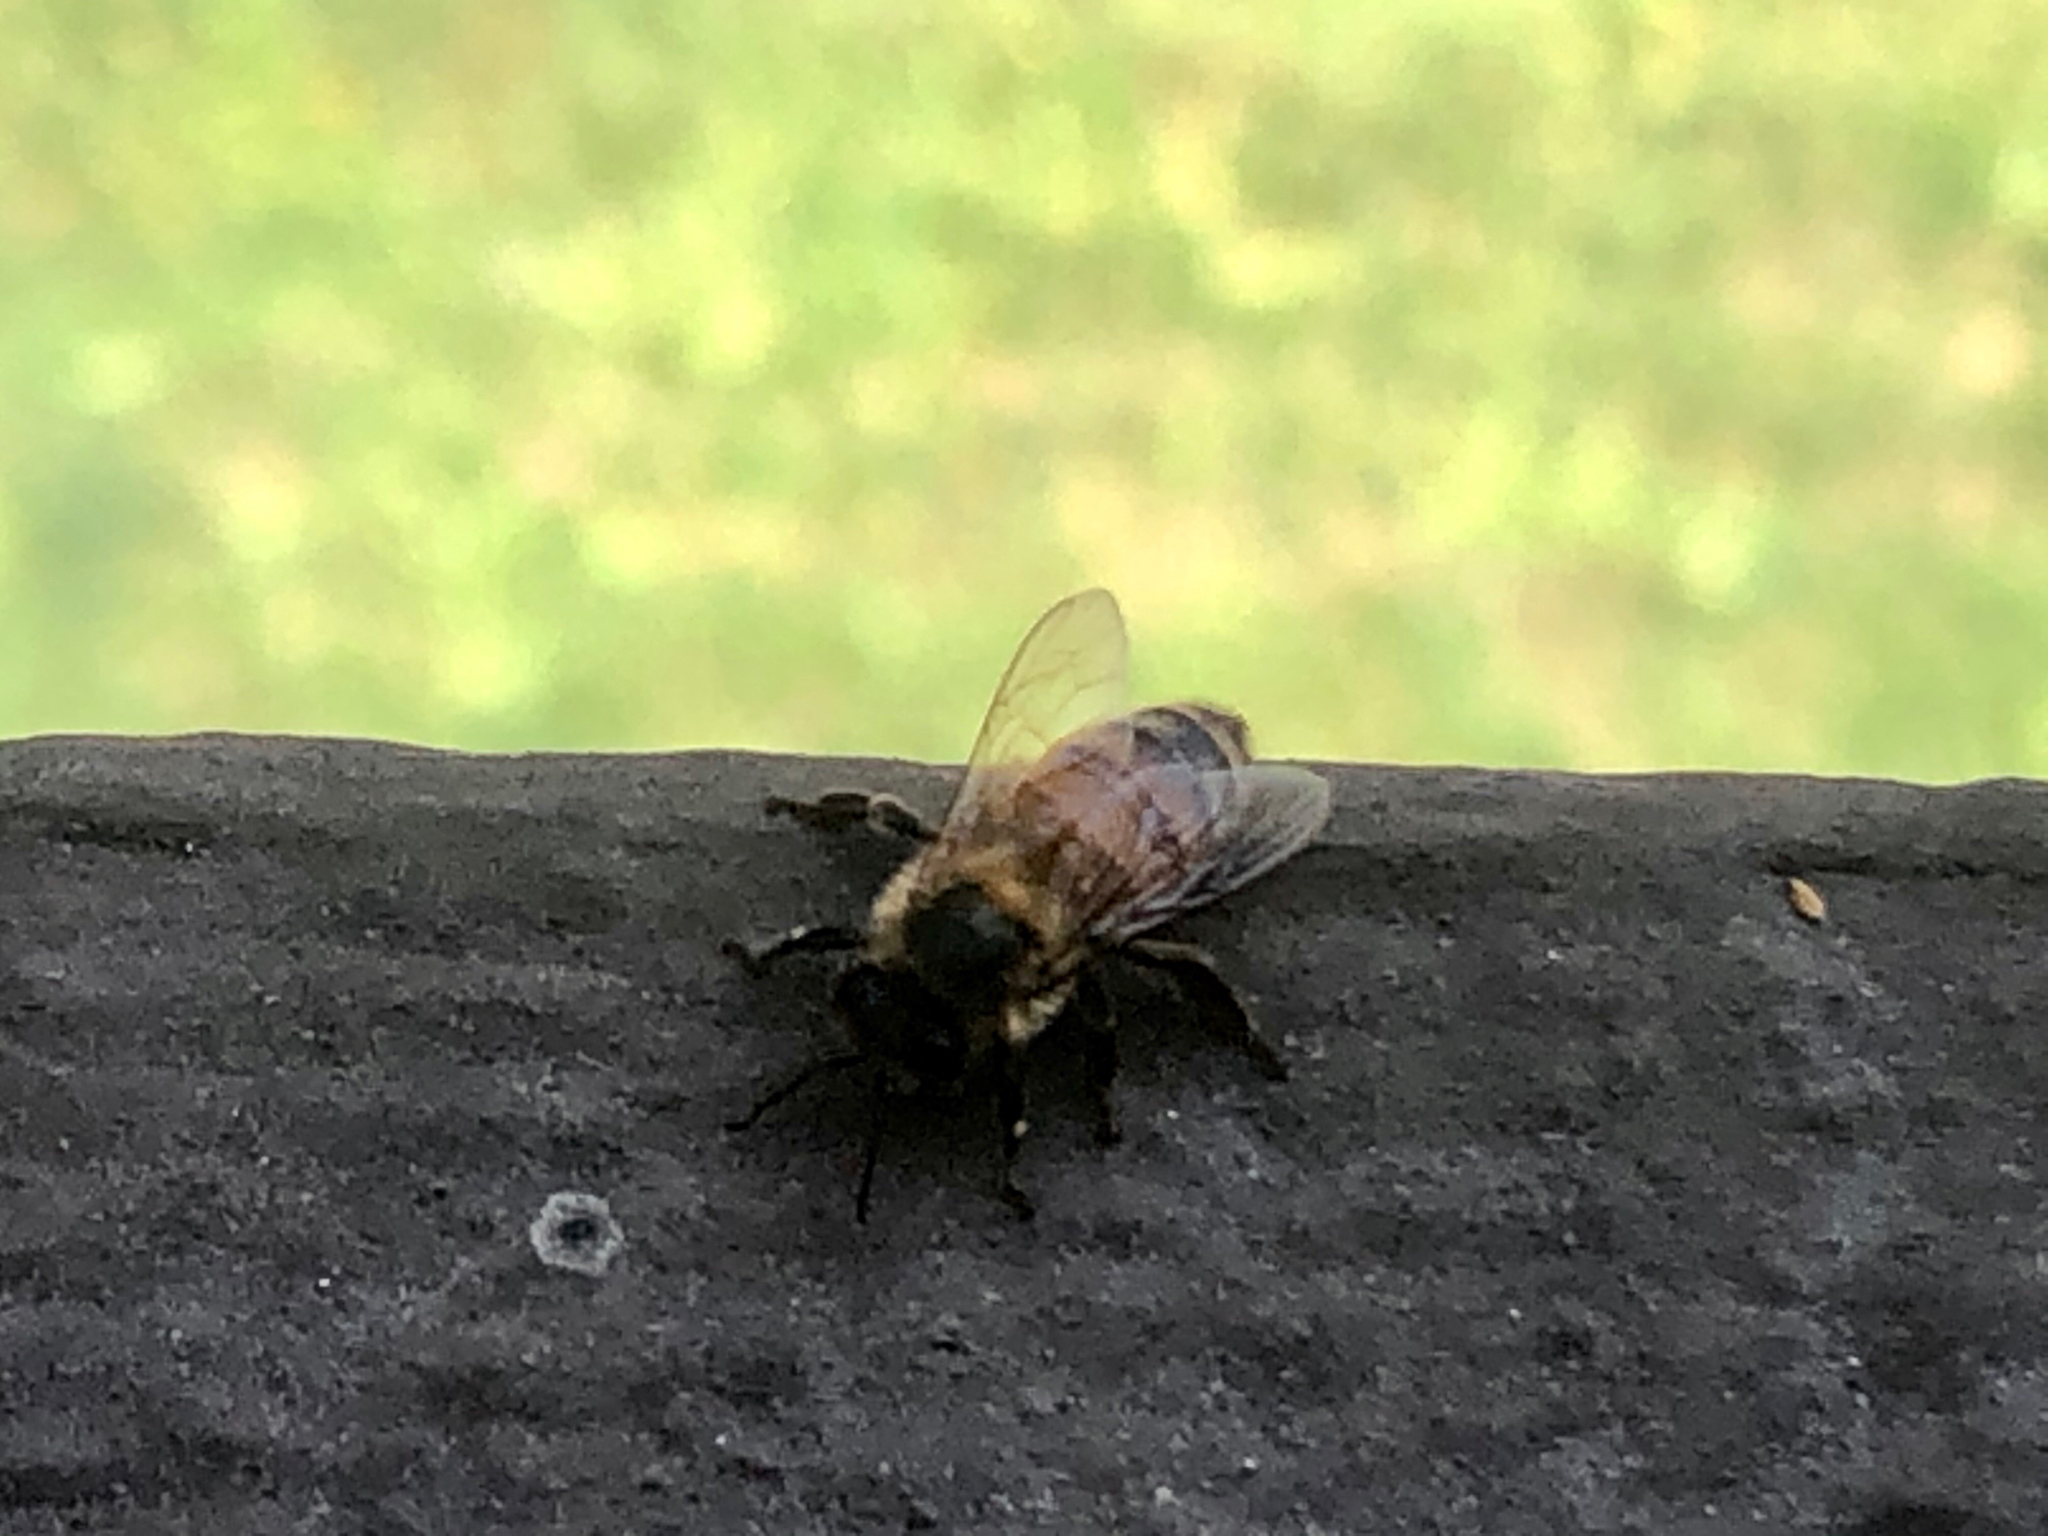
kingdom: Animalia
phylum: Arthropoda
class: Insecta
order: Hymenoptera
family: Apidae
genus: Apis
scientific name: Apis mellifera
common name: Honey bee
